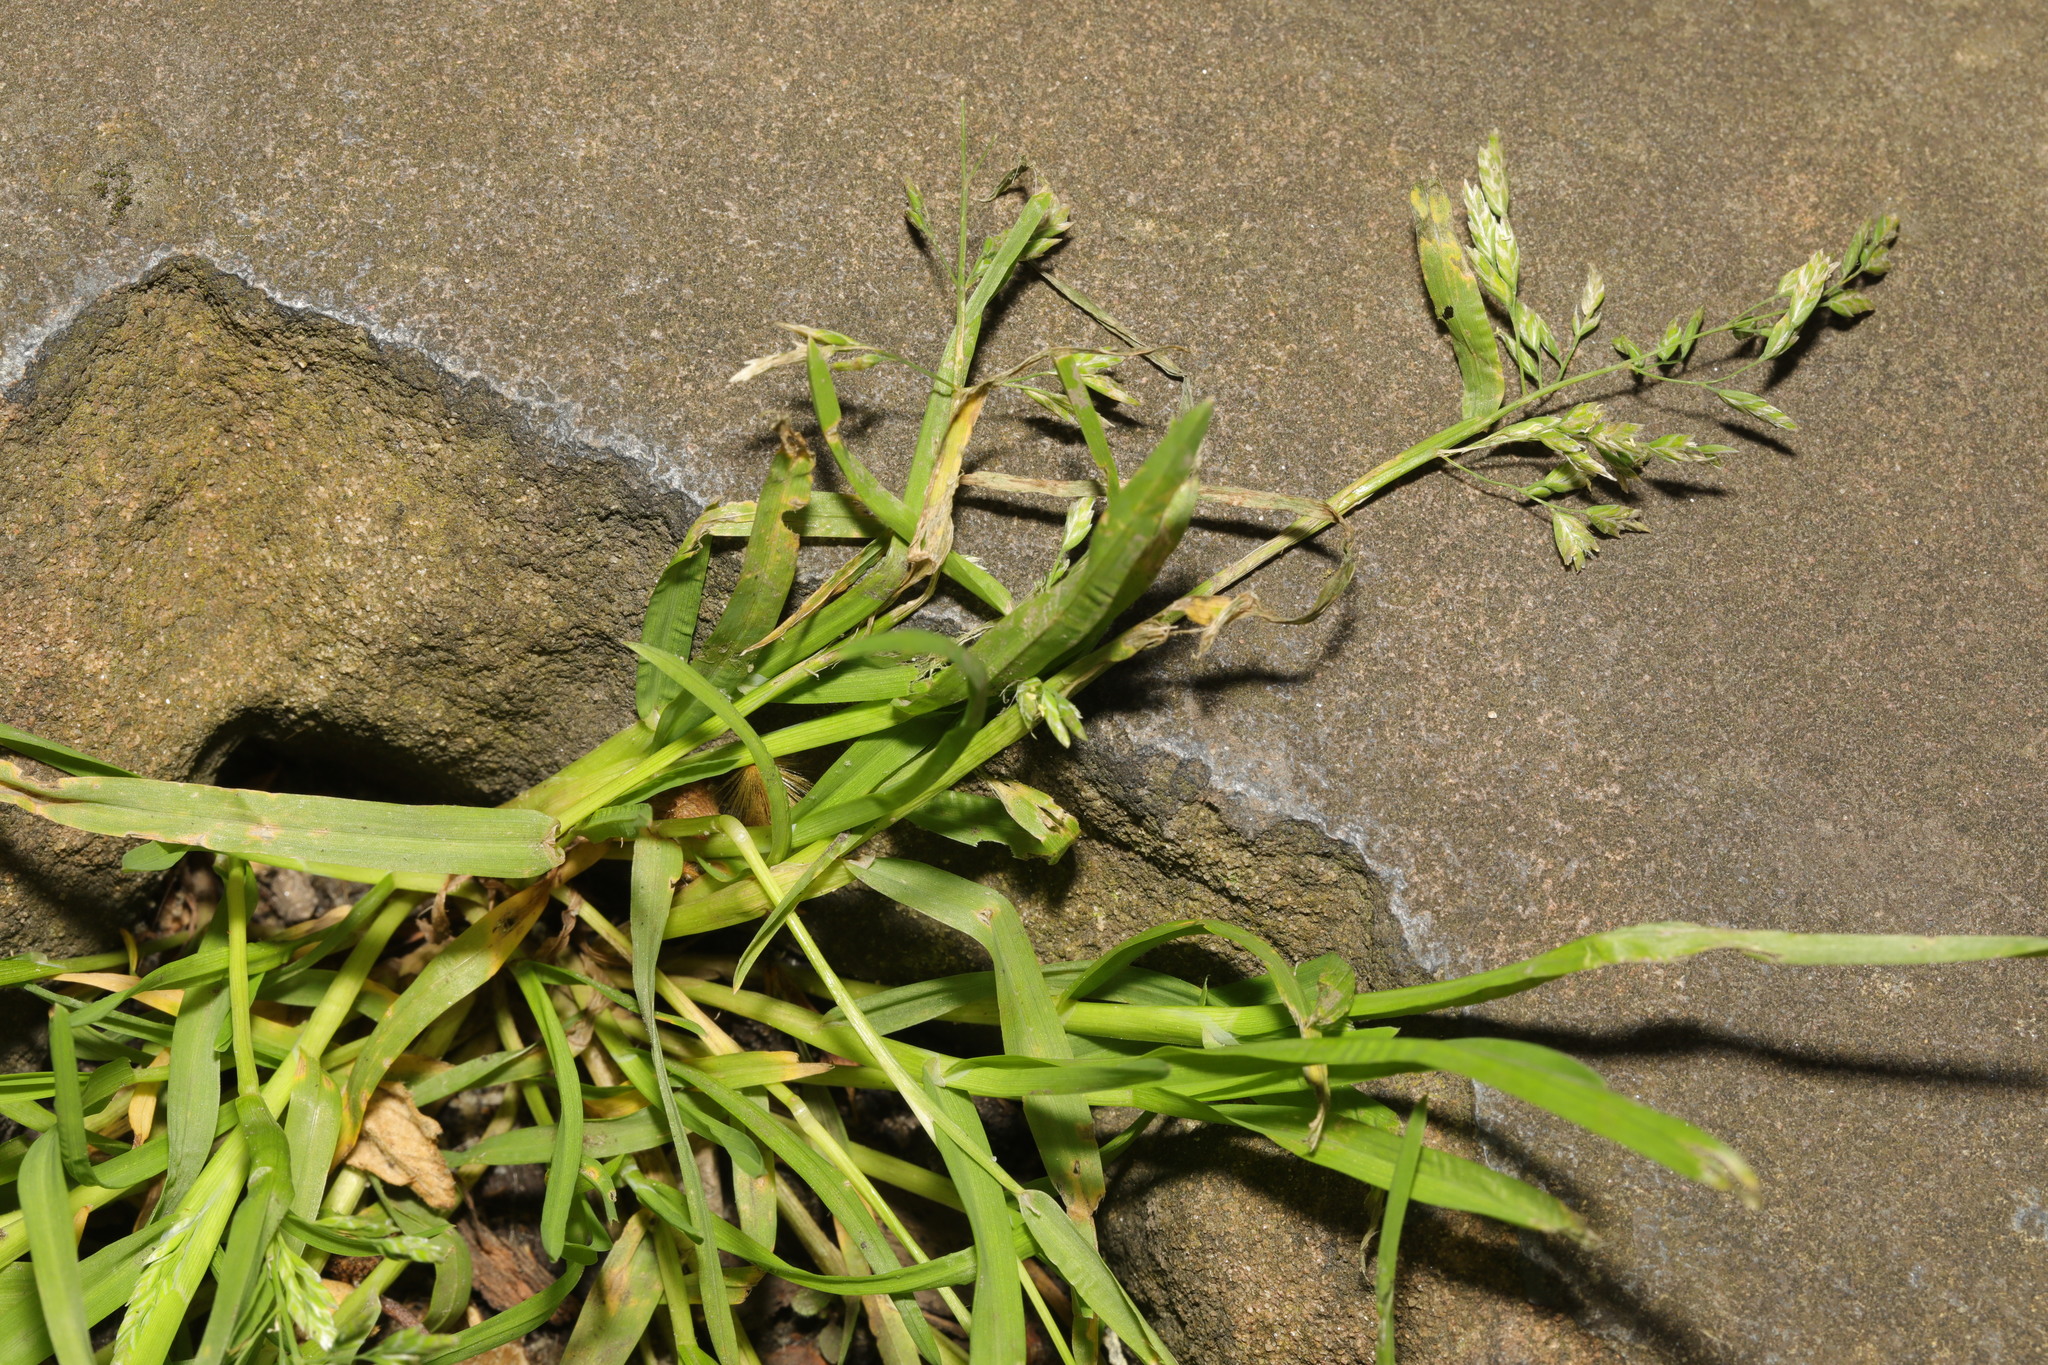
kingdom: Plantae
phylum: Tracheophyta
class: Liliopsida
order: Poales
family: Poaceae
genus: Poa
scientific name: Poa annua
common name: Annual bluegrass
